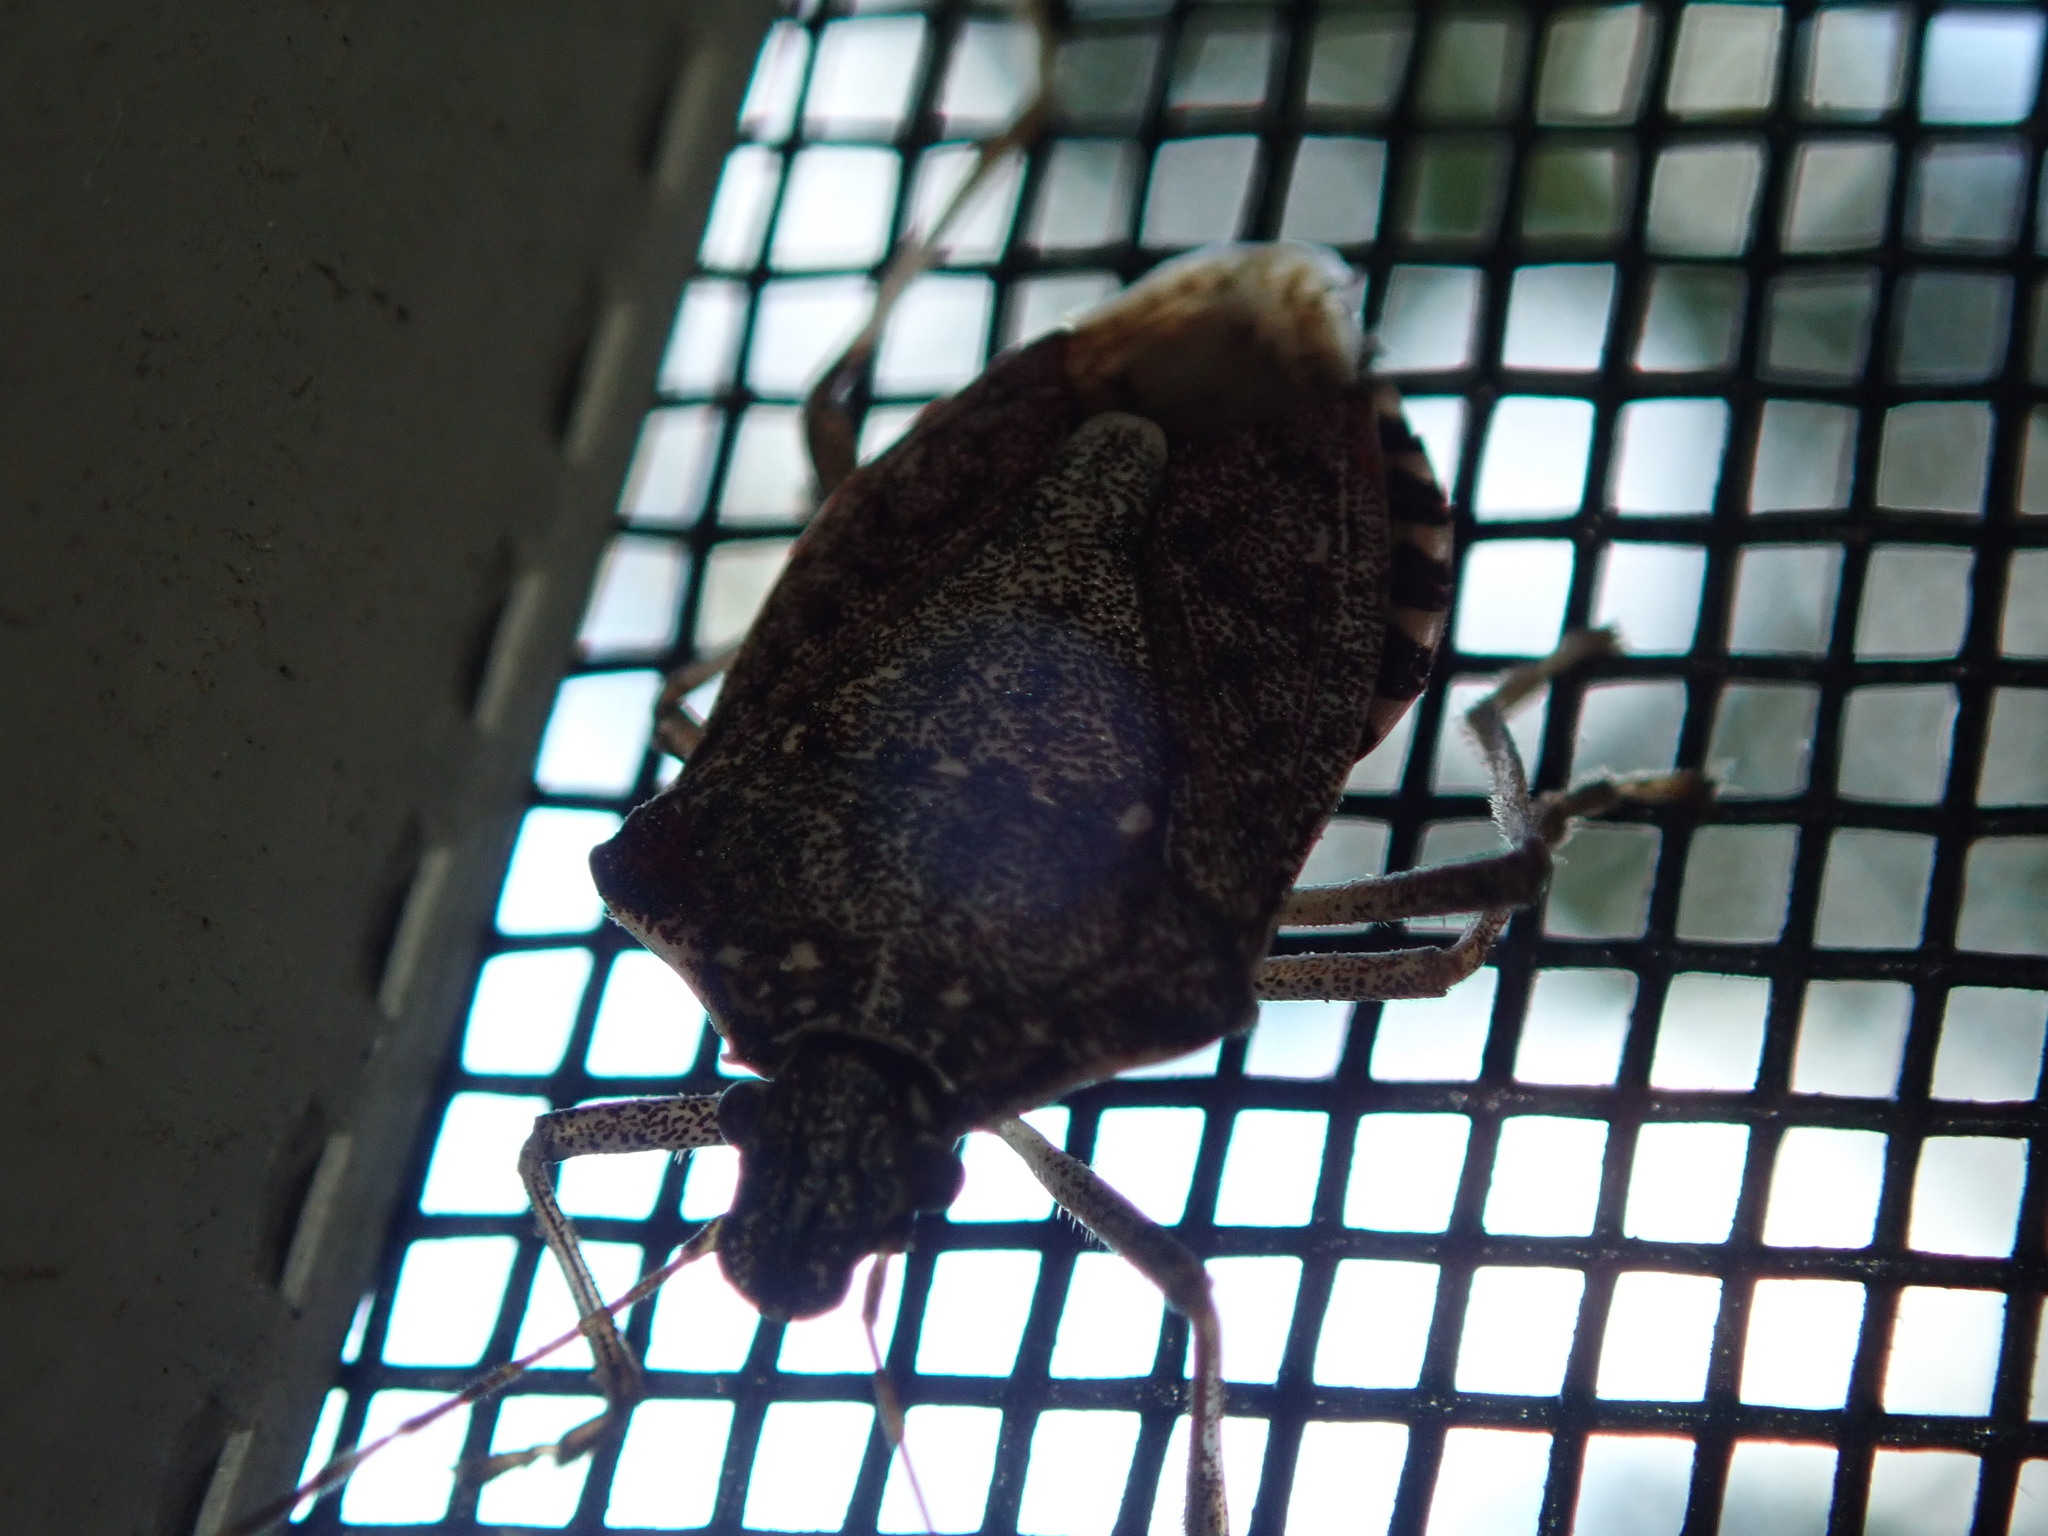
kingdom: Animalia
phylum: Arthropoda
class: Insecta
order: Hemiptera
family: Pentatomidae
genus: Halyomorpha
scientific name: Halyomorpha halys
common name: Brown marmorated stink bug
